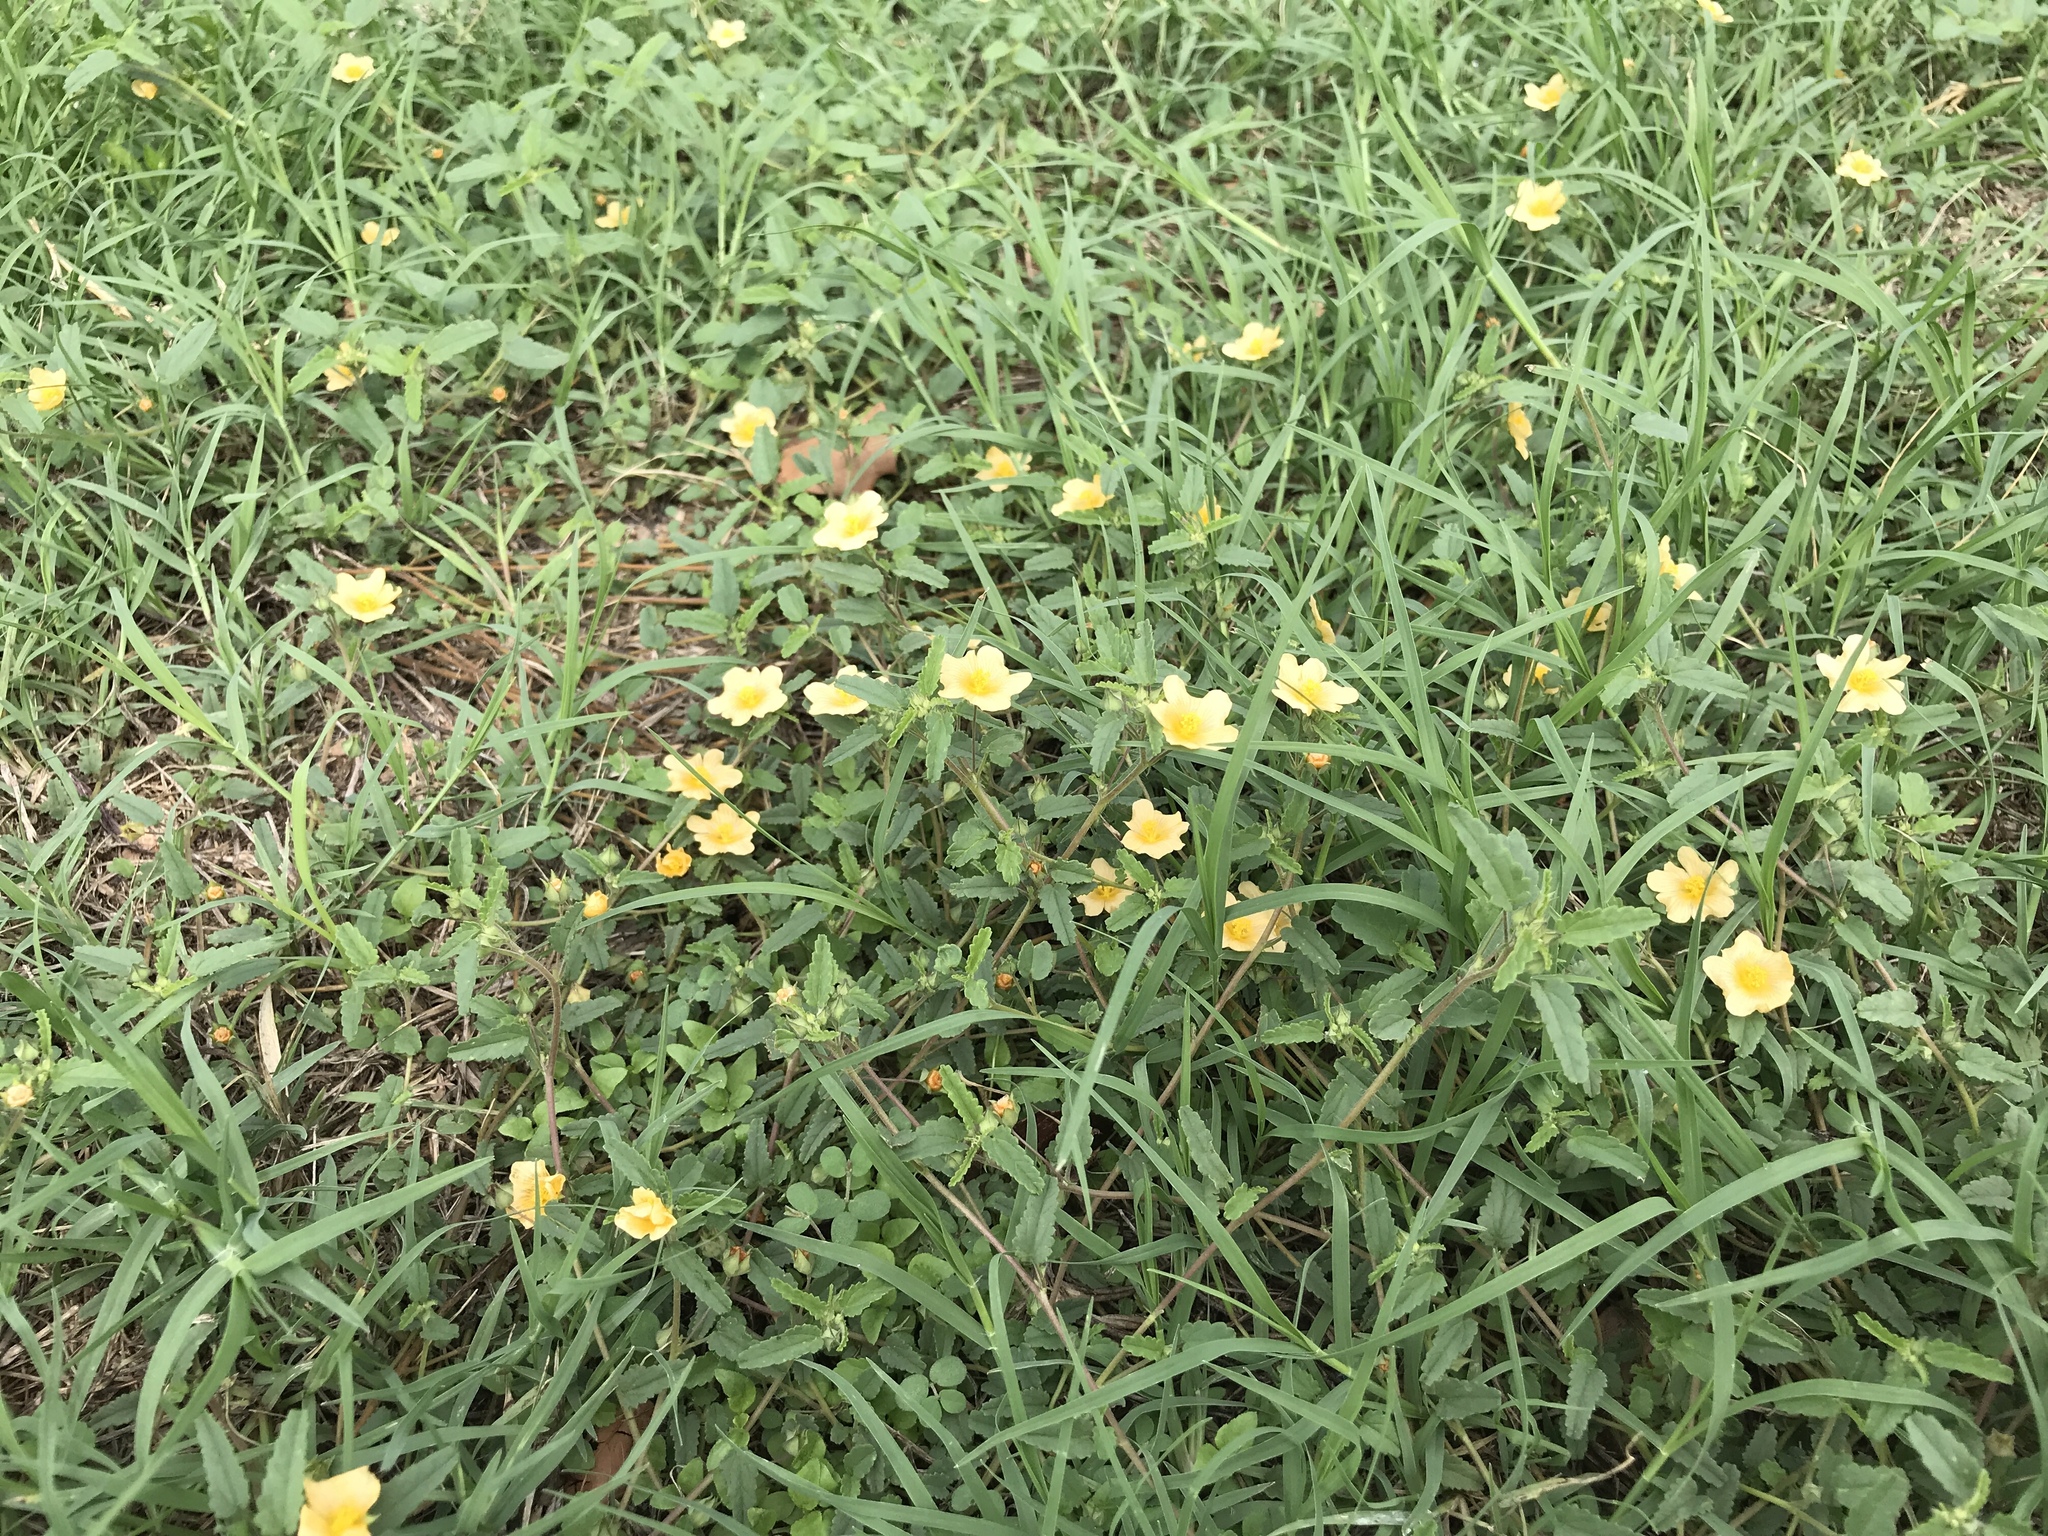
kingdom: Plantae
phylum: Tracheophyta
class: Magnoliopsida
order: Malvales
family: Malvaceae
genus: Sida
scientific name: Sida abutilifolia
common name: Spreading fanpetals
